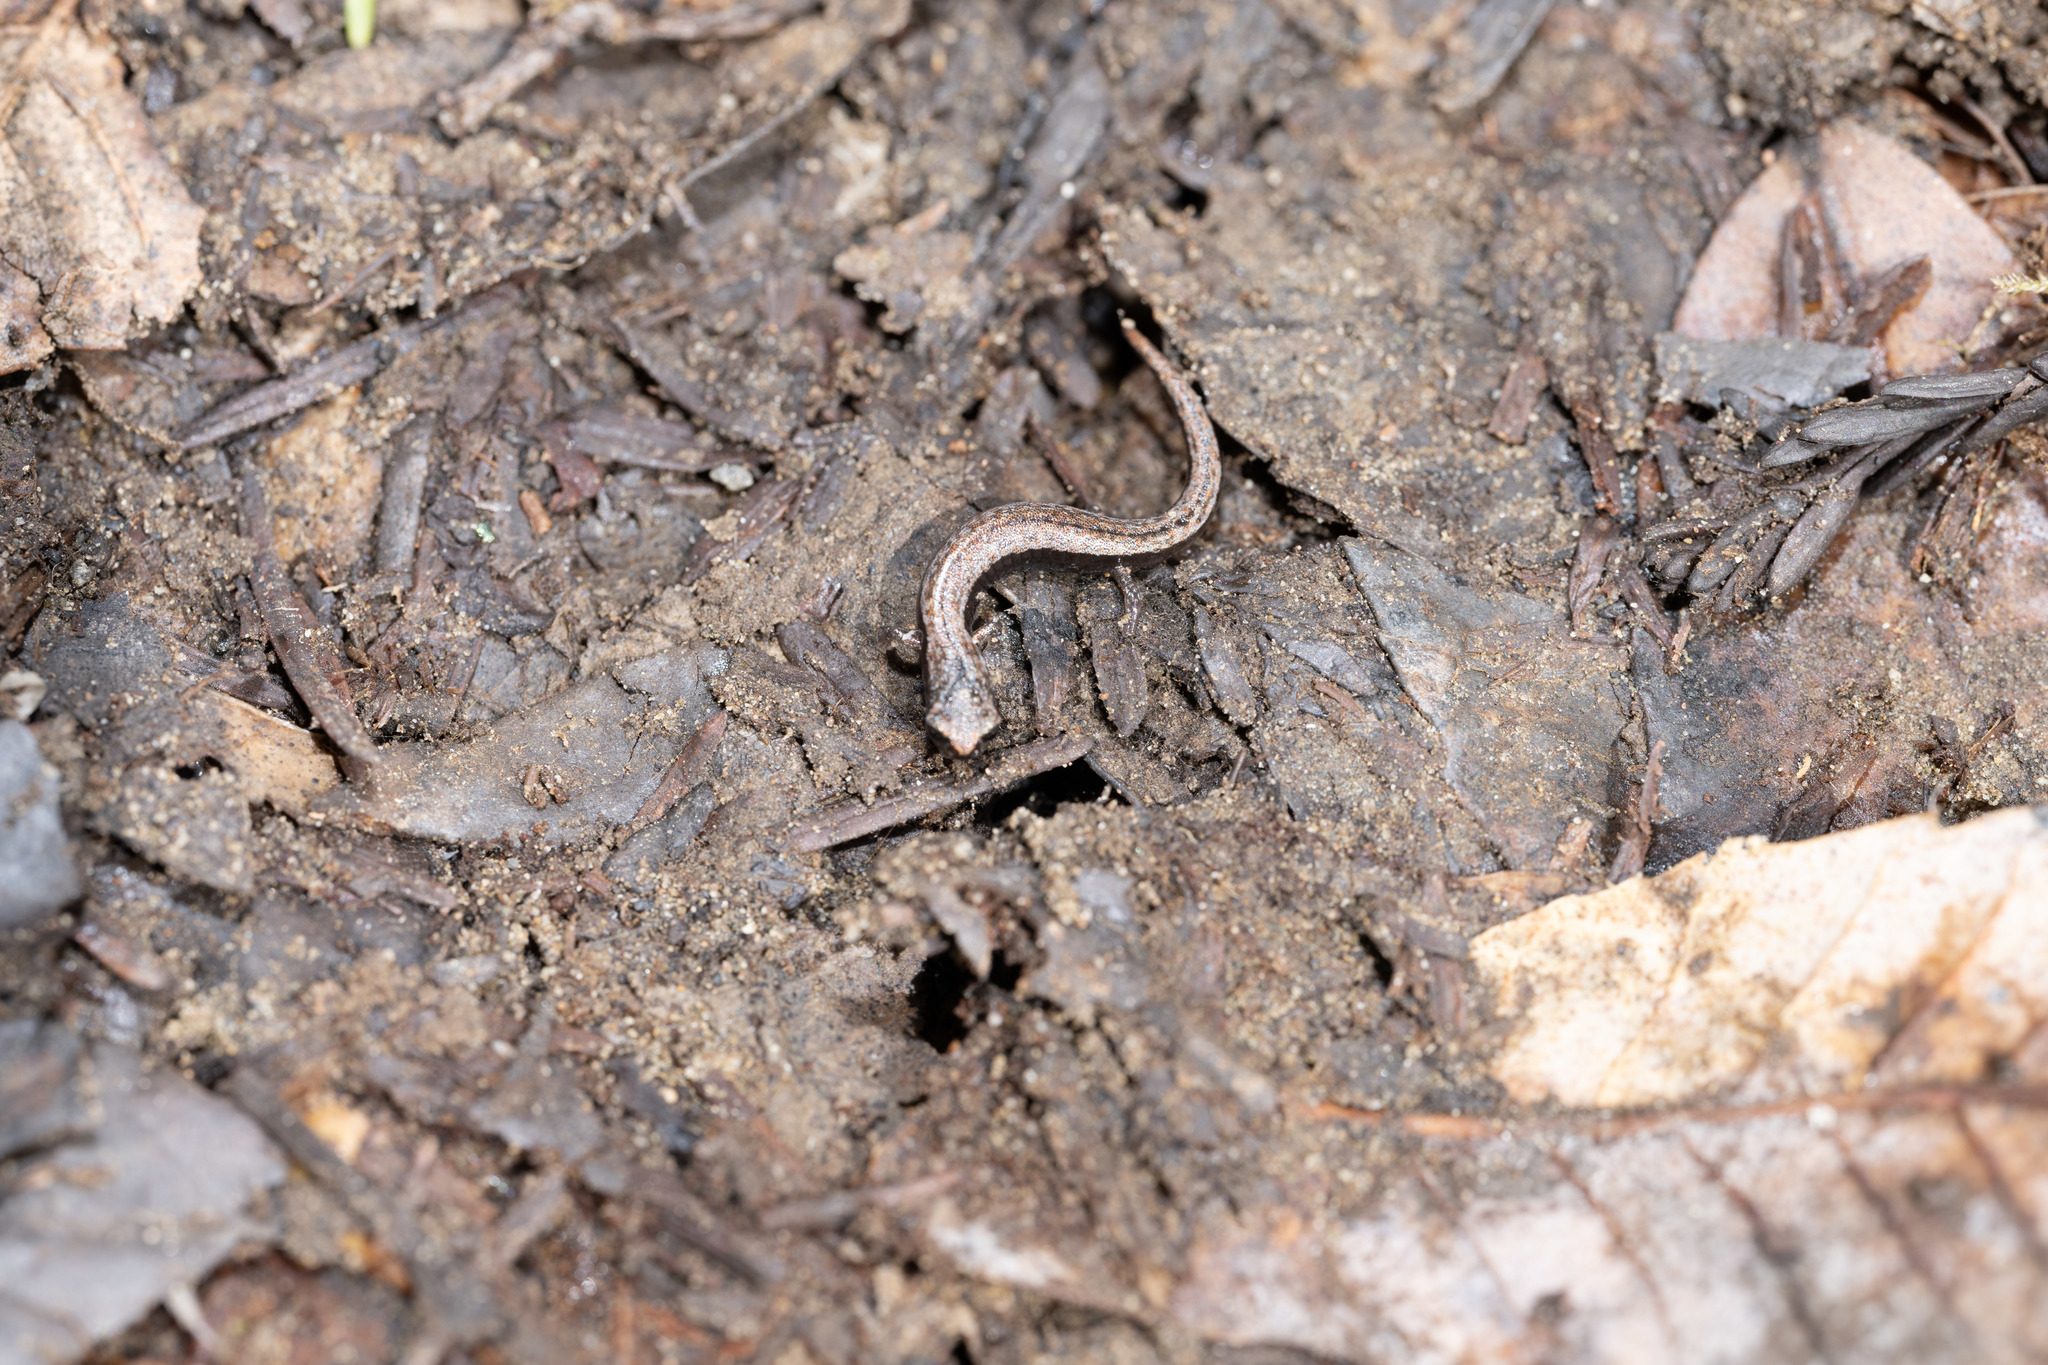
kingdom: Animalia
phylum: Chordata
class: Amphibia
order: Caudata
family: Plethodontidae
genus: Batrachoseps
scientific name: Batrachoseps attenuatus
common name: California slender salamander
